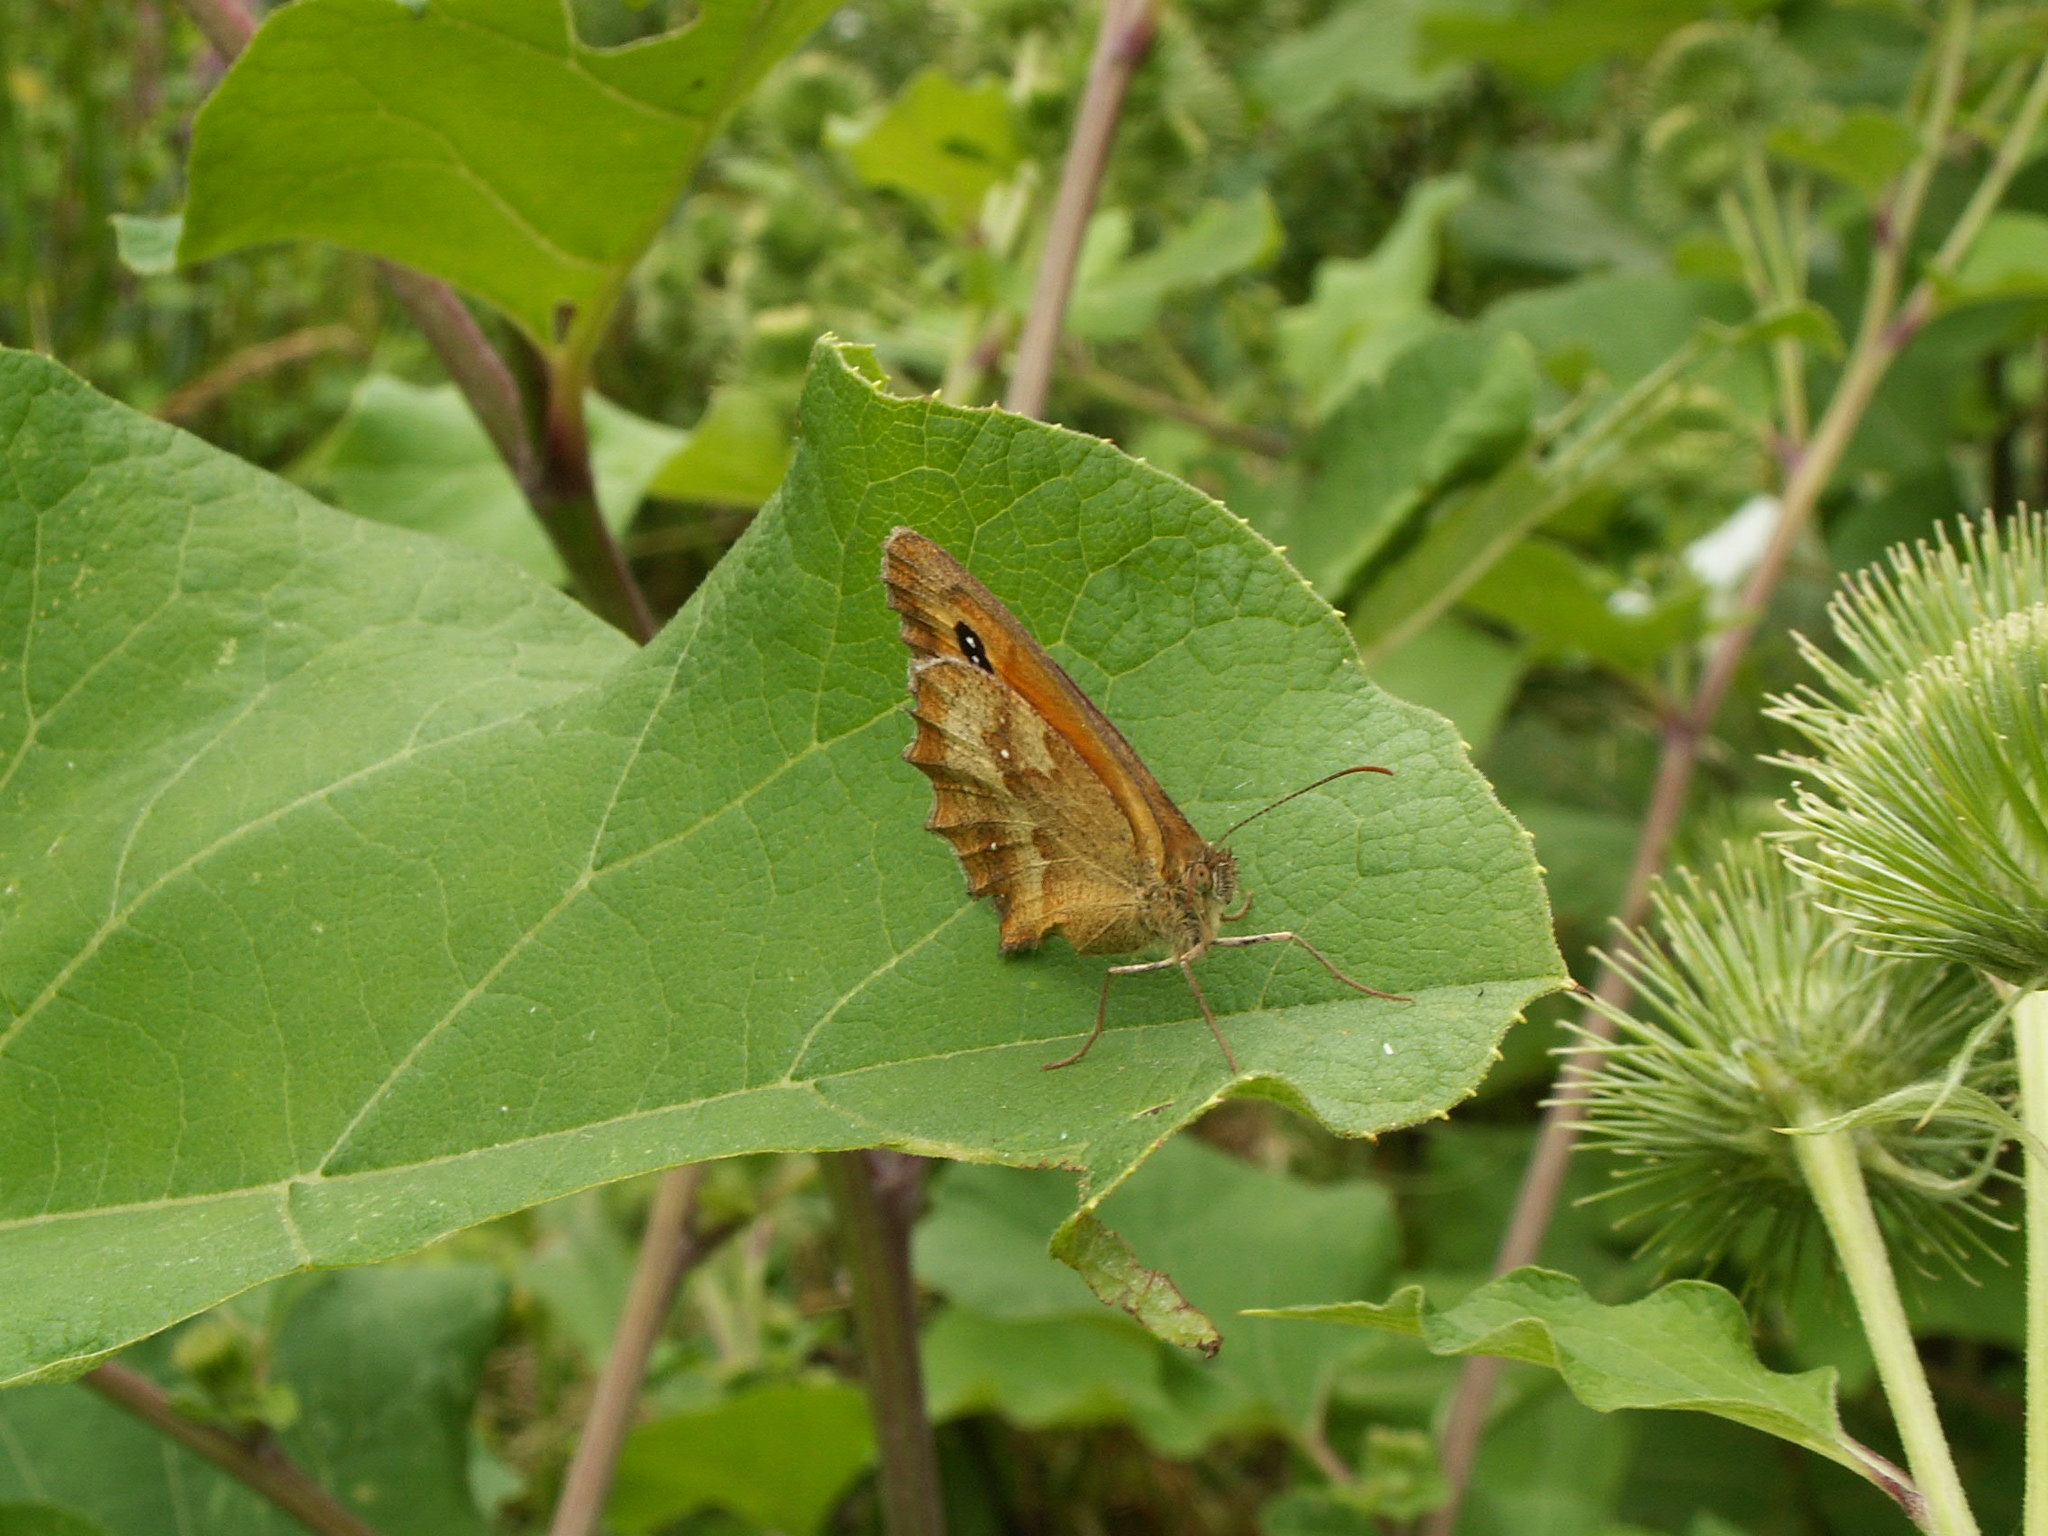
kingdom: Animalia
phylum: Arthropoda
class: Insecta
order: Lepidoptera
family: Nymphalidae
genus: Pyronia
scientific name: Pyronia tithonus
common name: Gatekeeper
